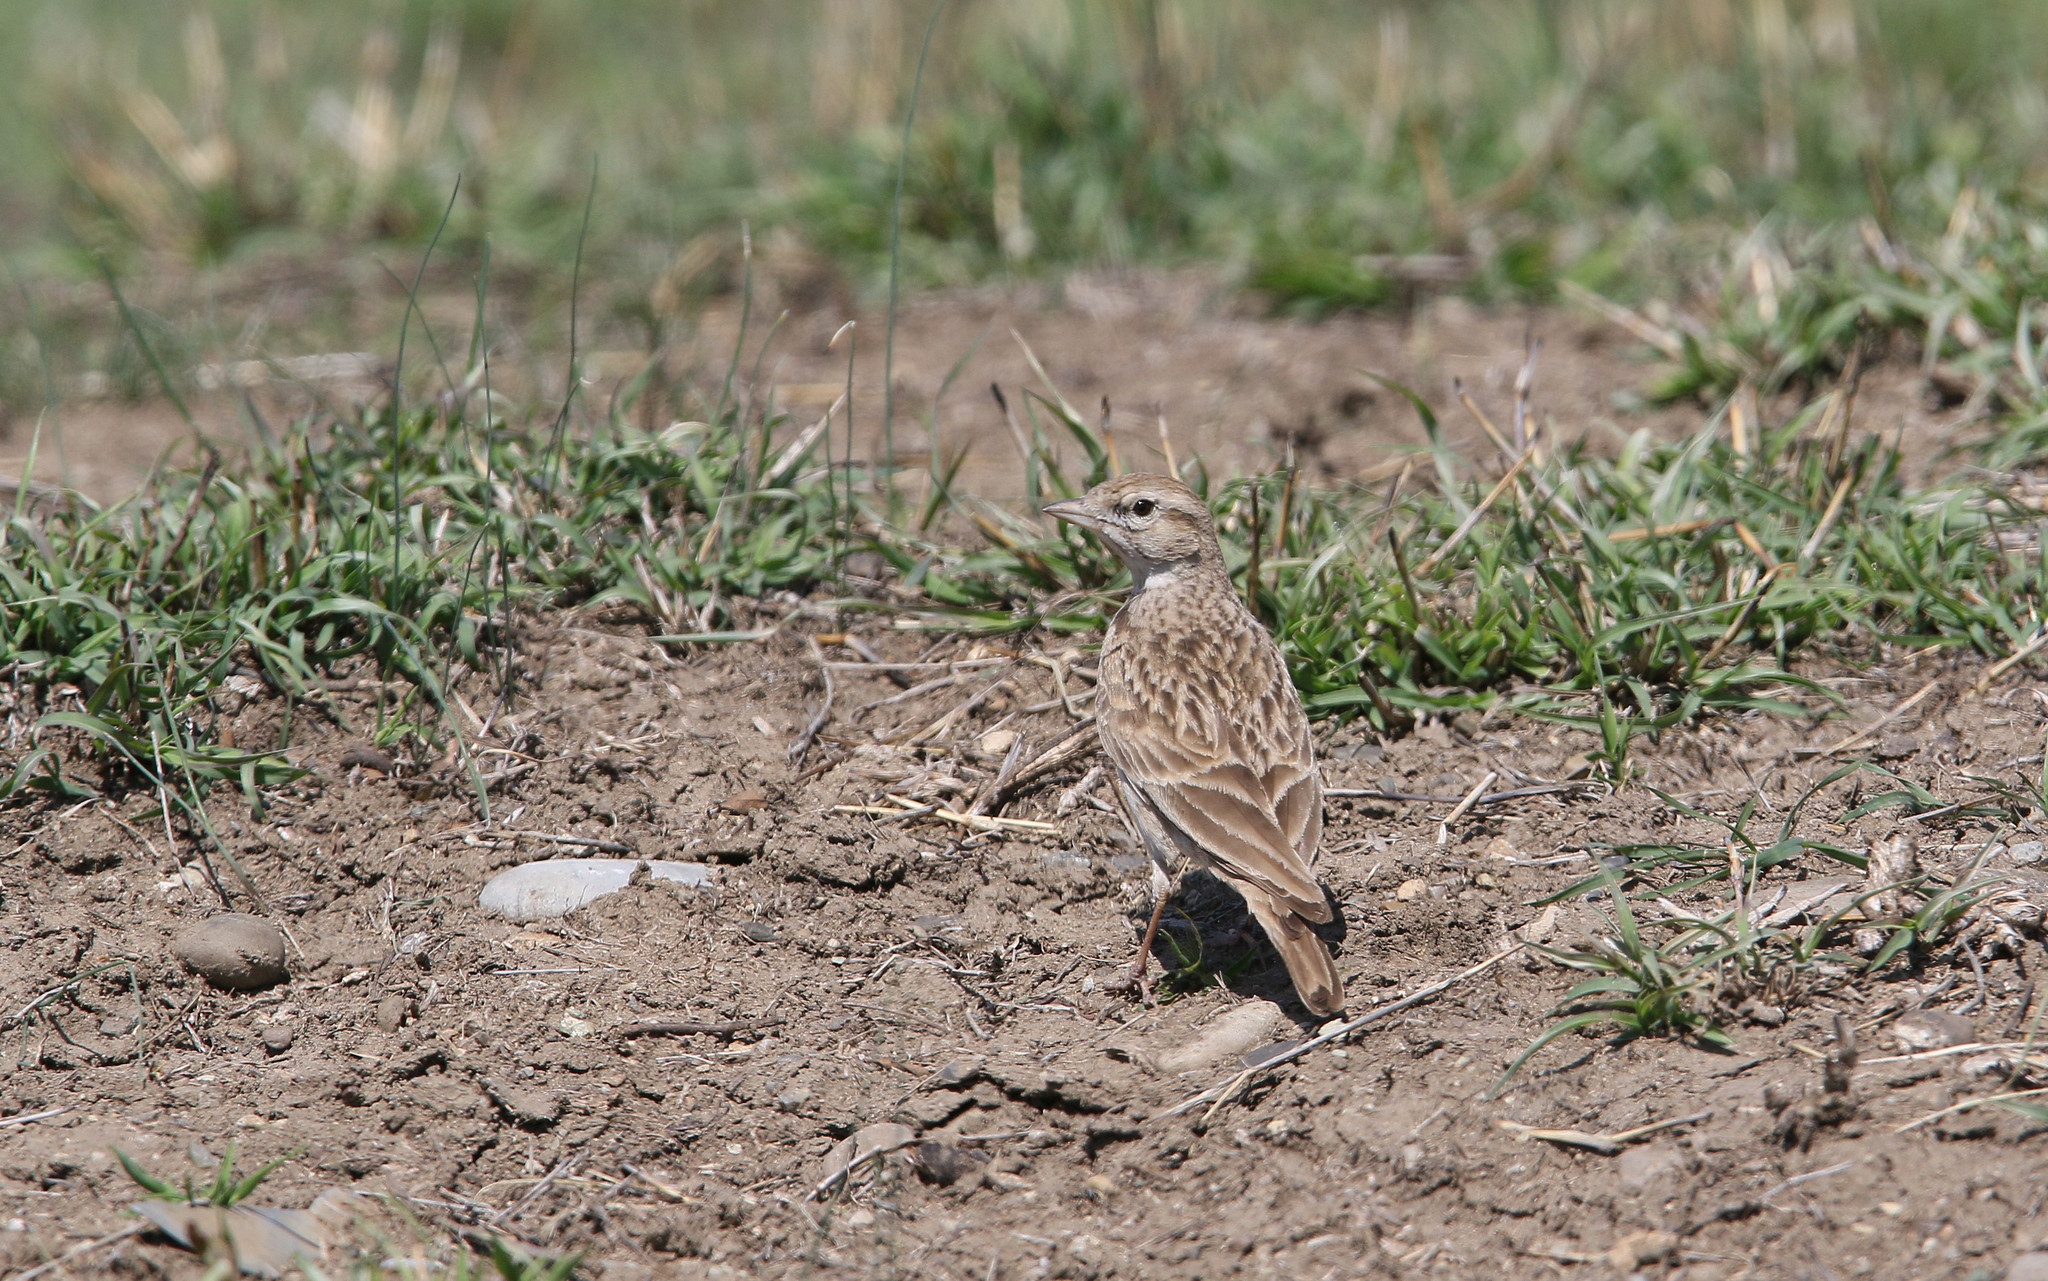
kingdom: Animalia
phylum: Chordata
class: Aves
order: Passeriformes
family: Alaudidae
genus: Calandrella
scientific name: Calandrella brachydactyla
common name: Greater short-toed lark
